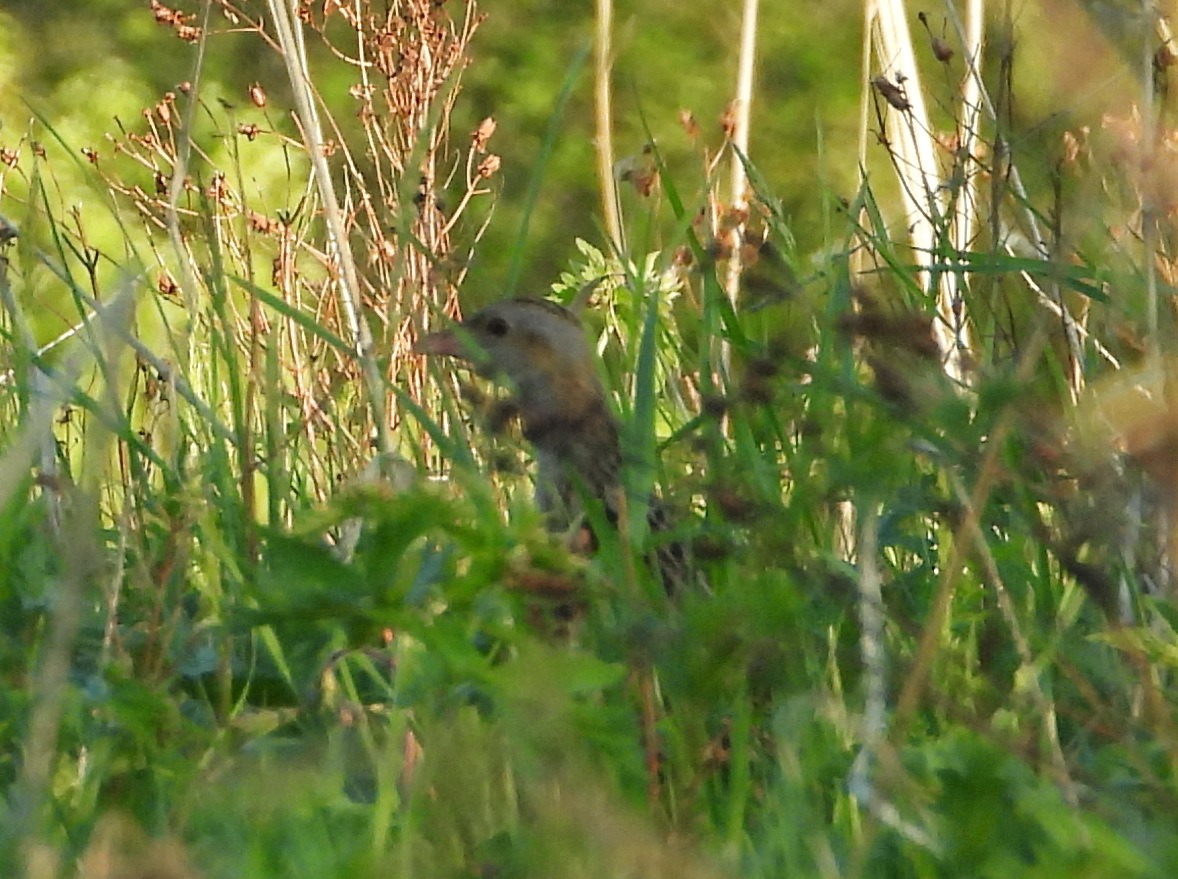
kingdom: Animalia
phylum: Chordata
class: Aves
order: Gruiformes
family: Rallidae
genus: Crex
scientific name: Crex crex
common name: Corn crake
